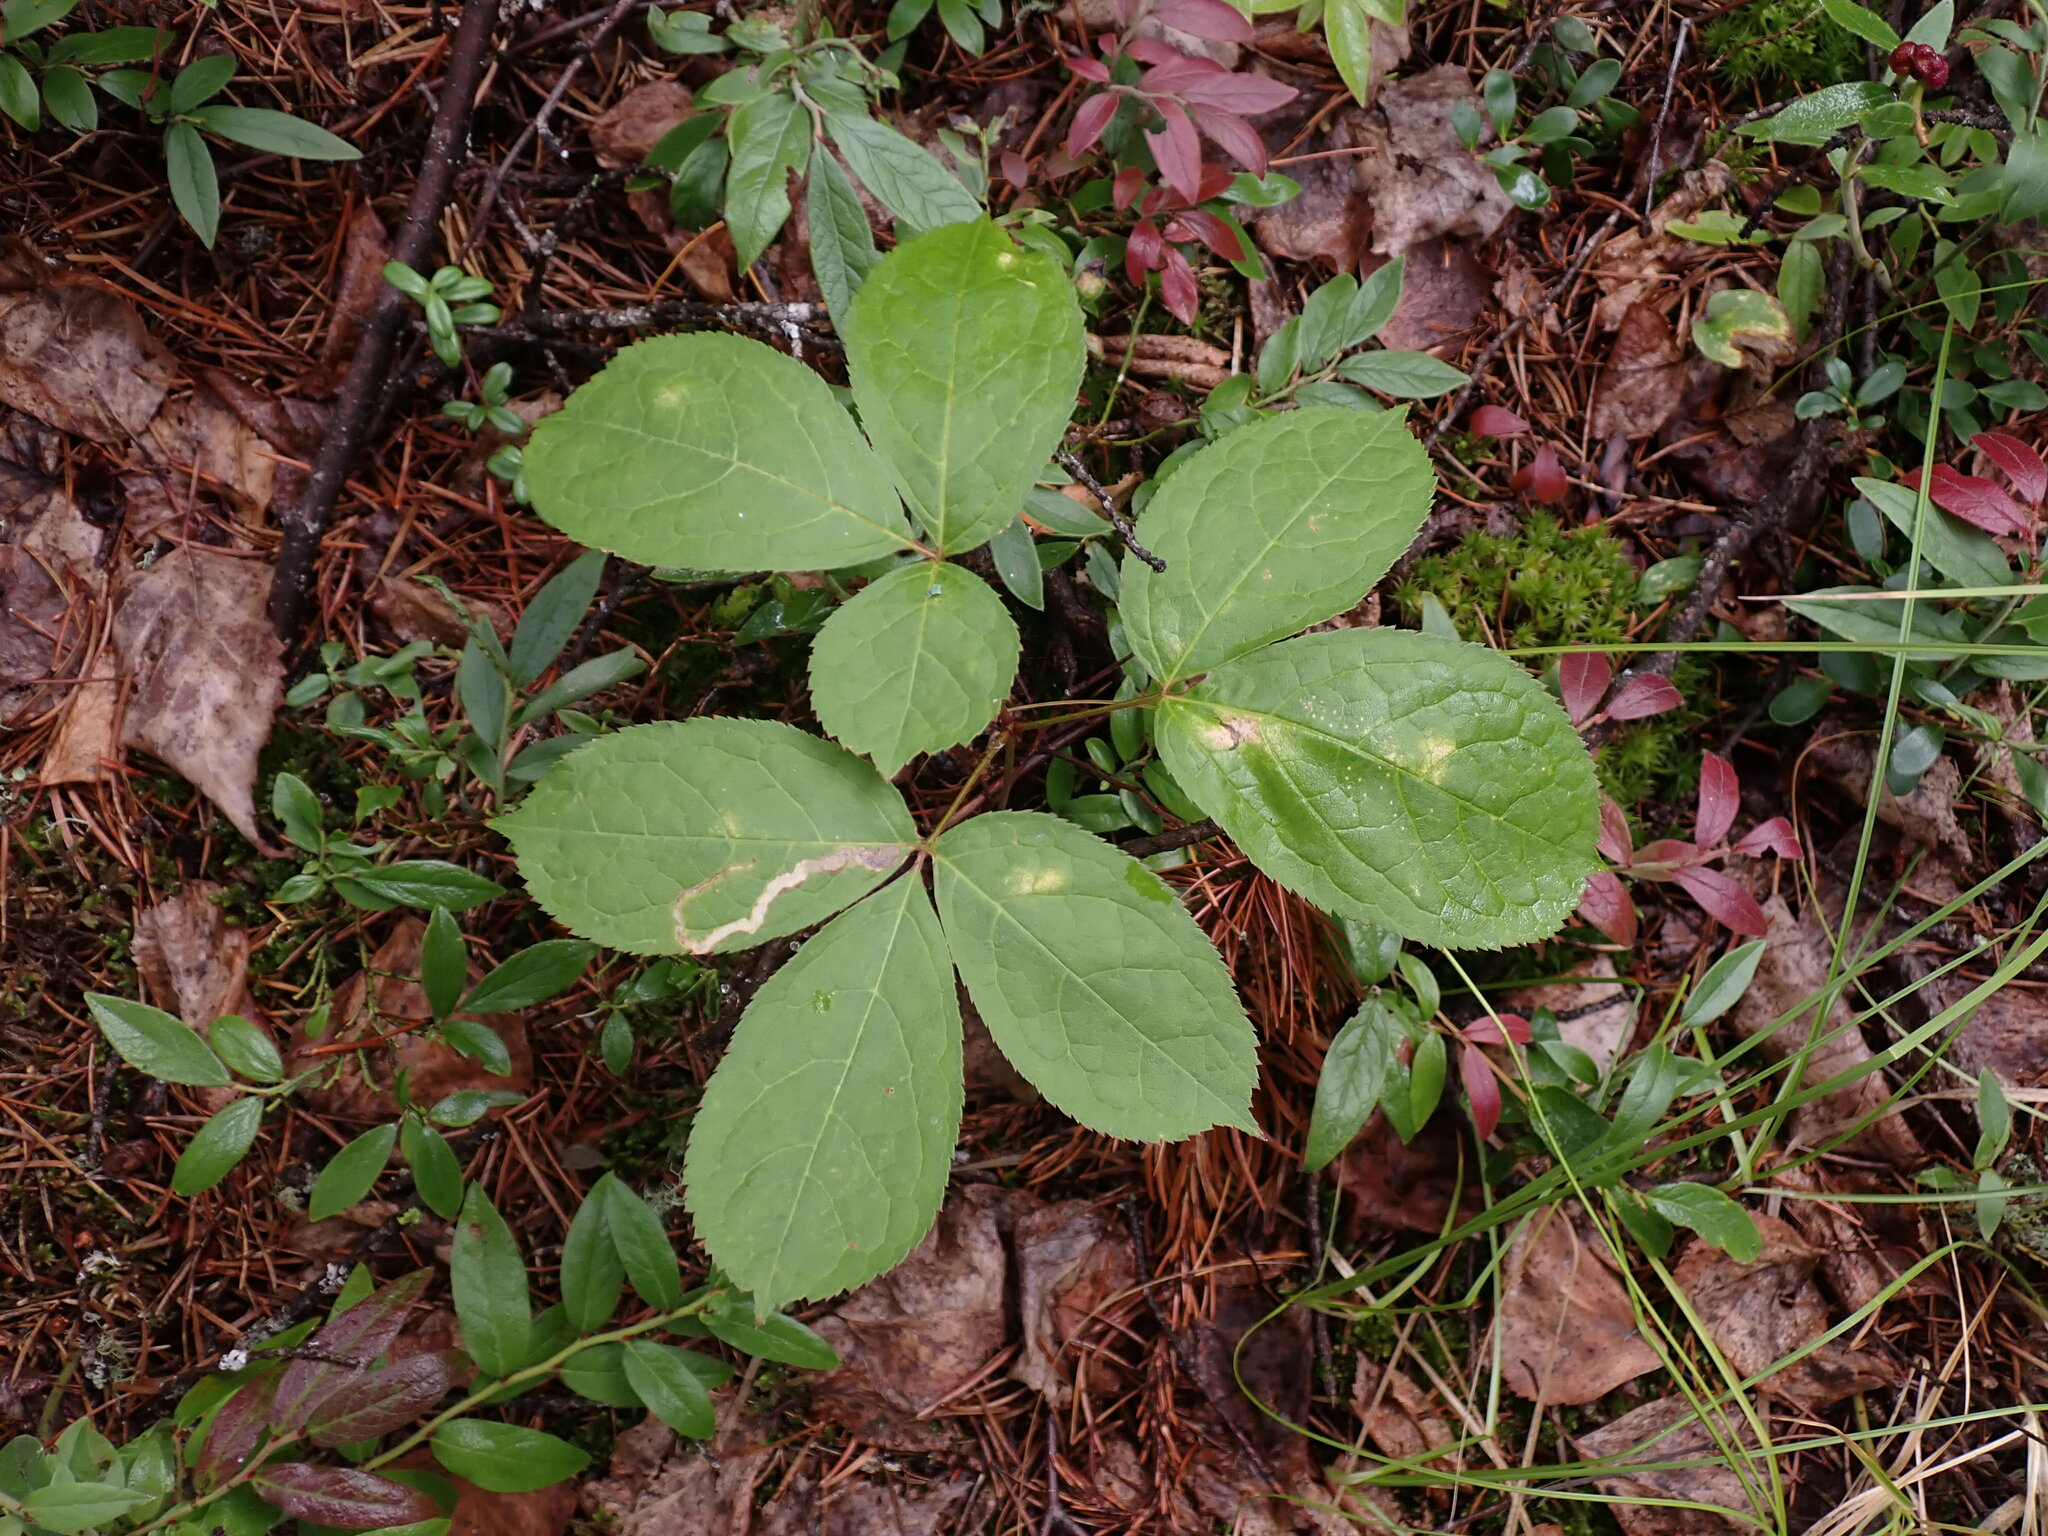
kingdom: Plantae
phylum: Tracheophyta
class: Magnoliopsida
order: Apiales
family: Araliaceae
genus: Aralia
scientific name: Aralia nudicaulis
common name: Wild sarsaparilla
